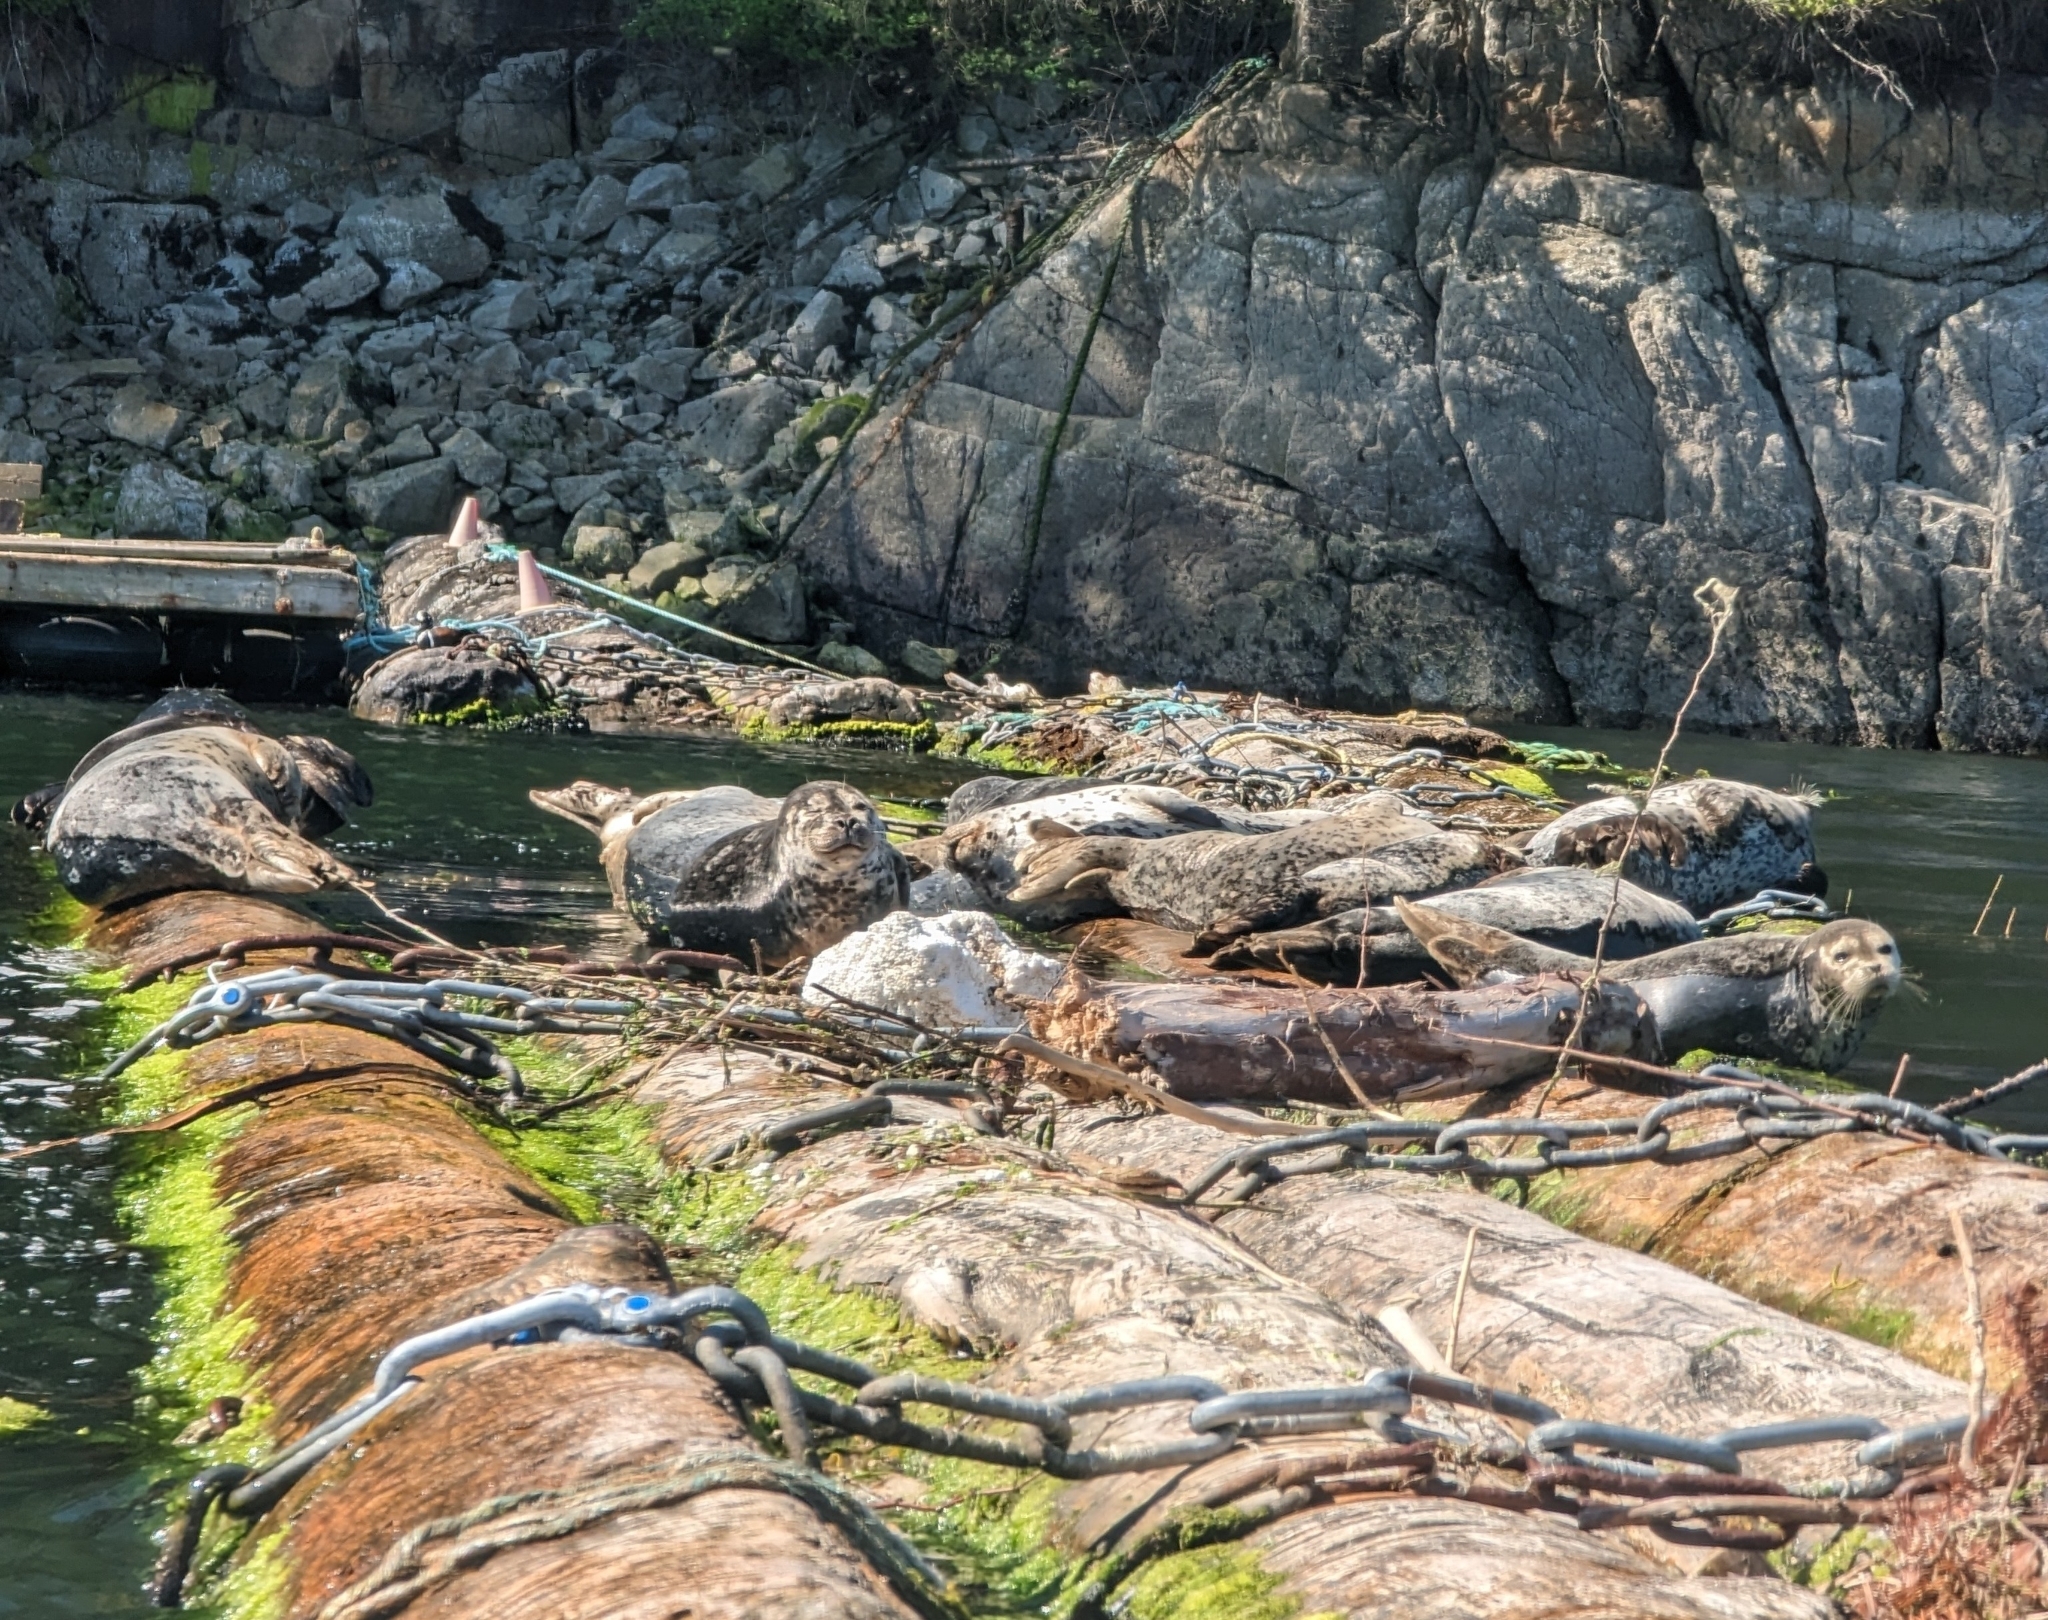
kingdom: Animalia
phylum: Chordata
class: Mammalia
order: Carnivora
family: Phocidae
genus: Phoca
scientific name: Phoca vitulina
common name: Harbor seal
